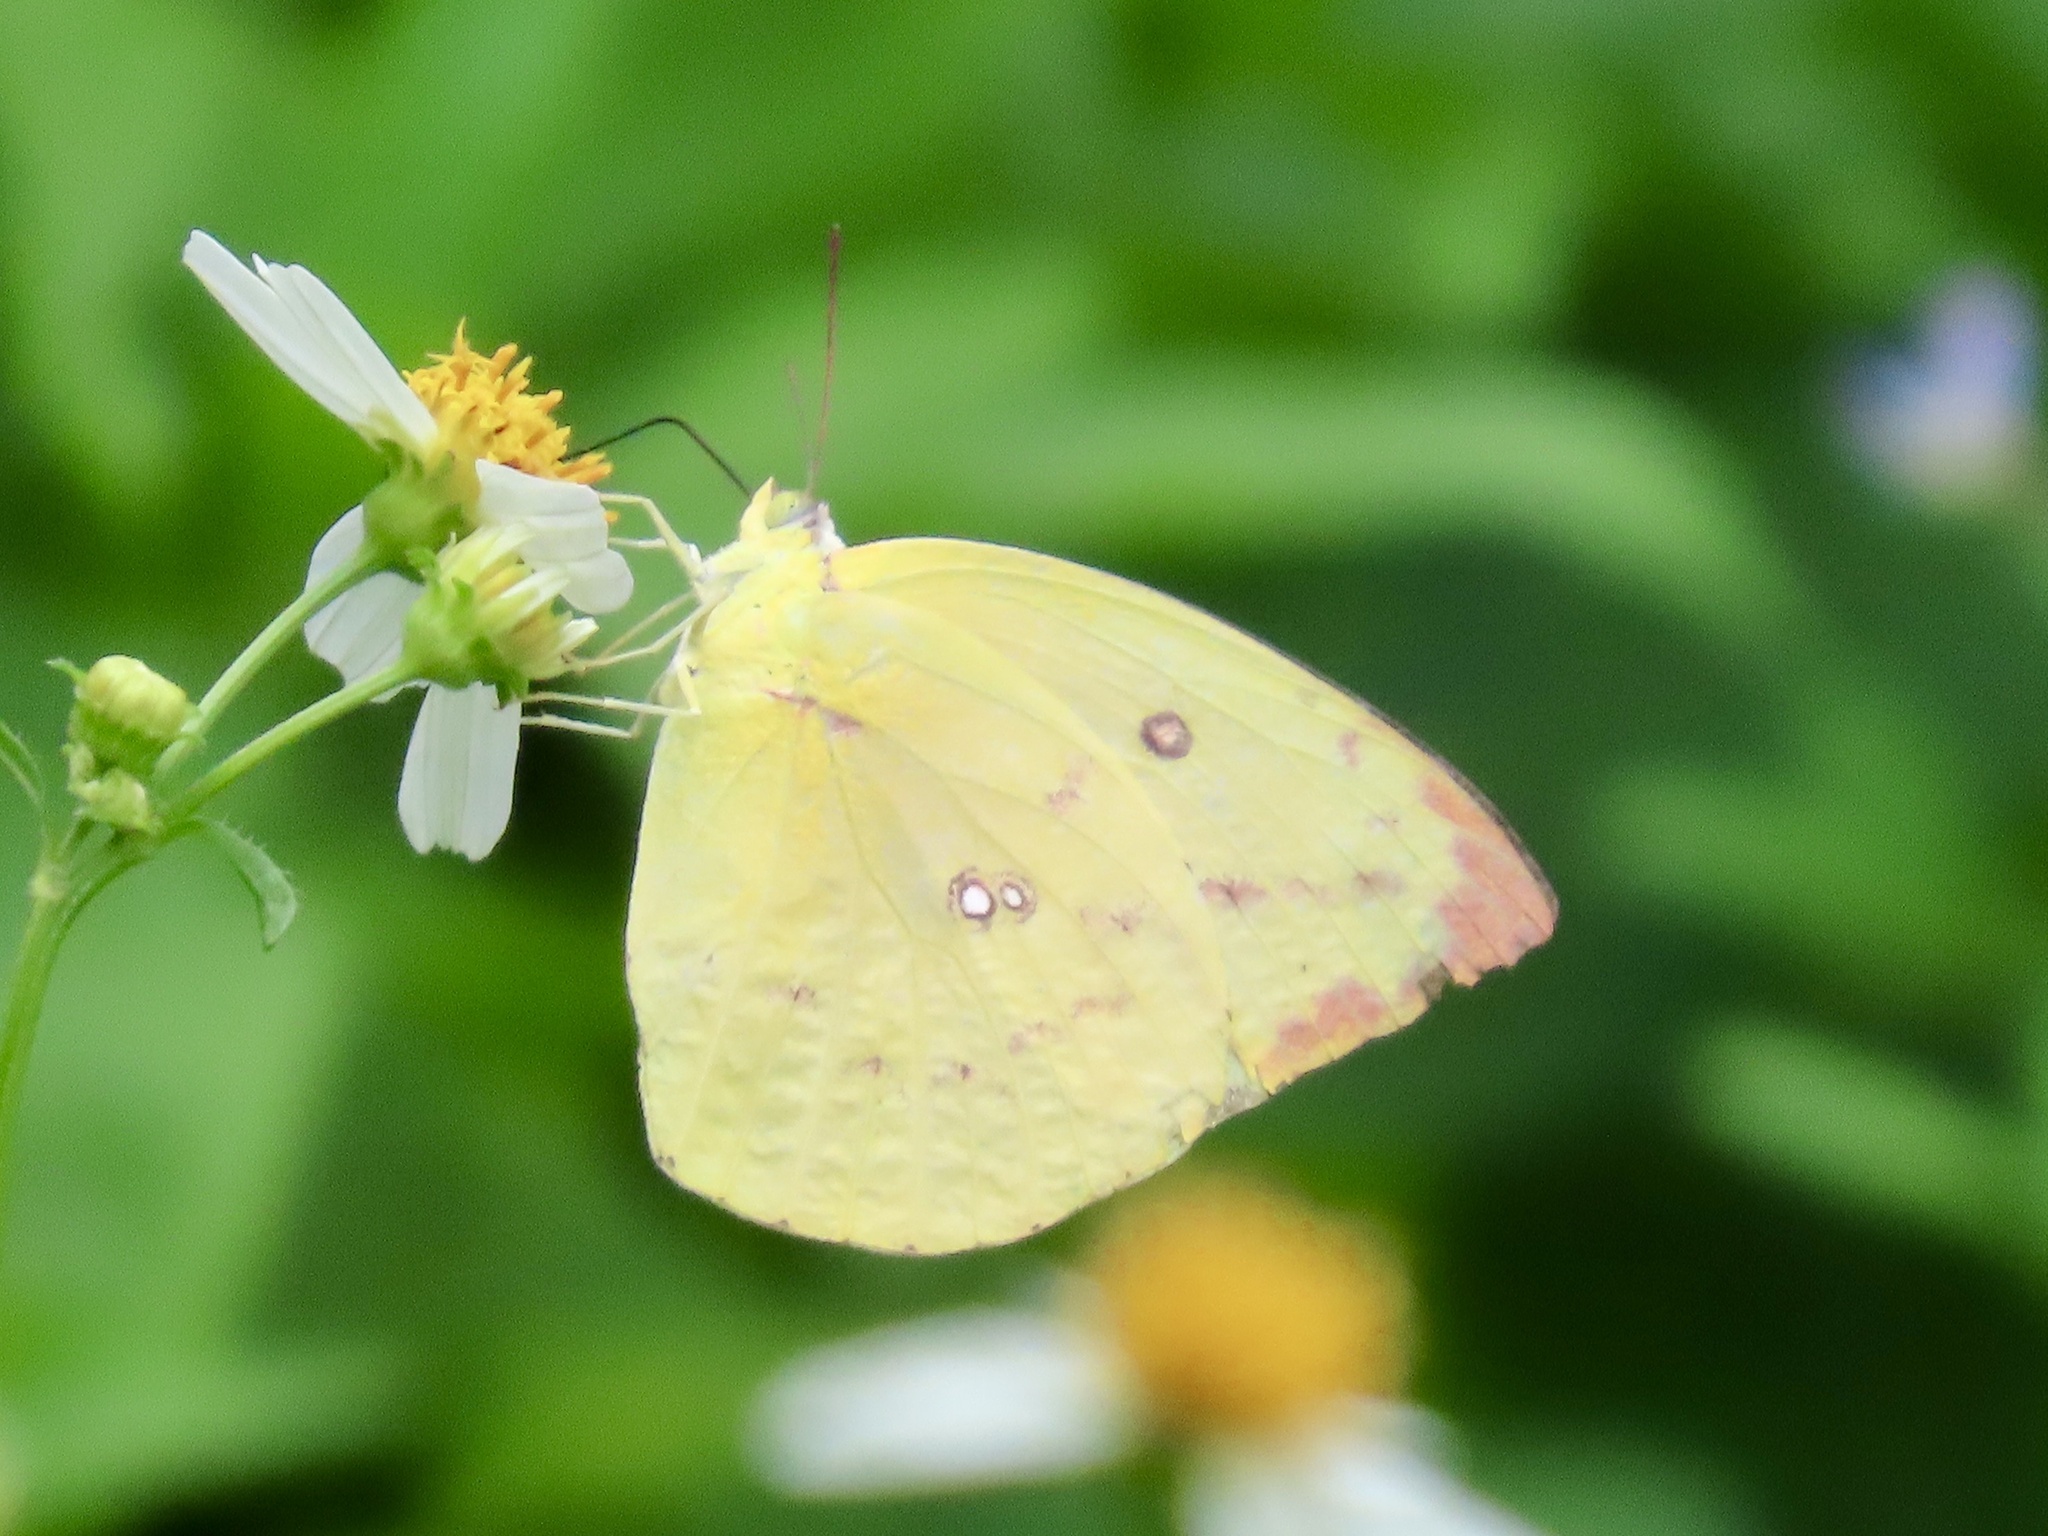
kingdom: Animalia
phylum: Arthropoda
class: Insecta
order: Lepidoptera
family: Pieridae
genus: Catopsilia
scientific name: Catopsilia pomona
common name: Common emigrant
